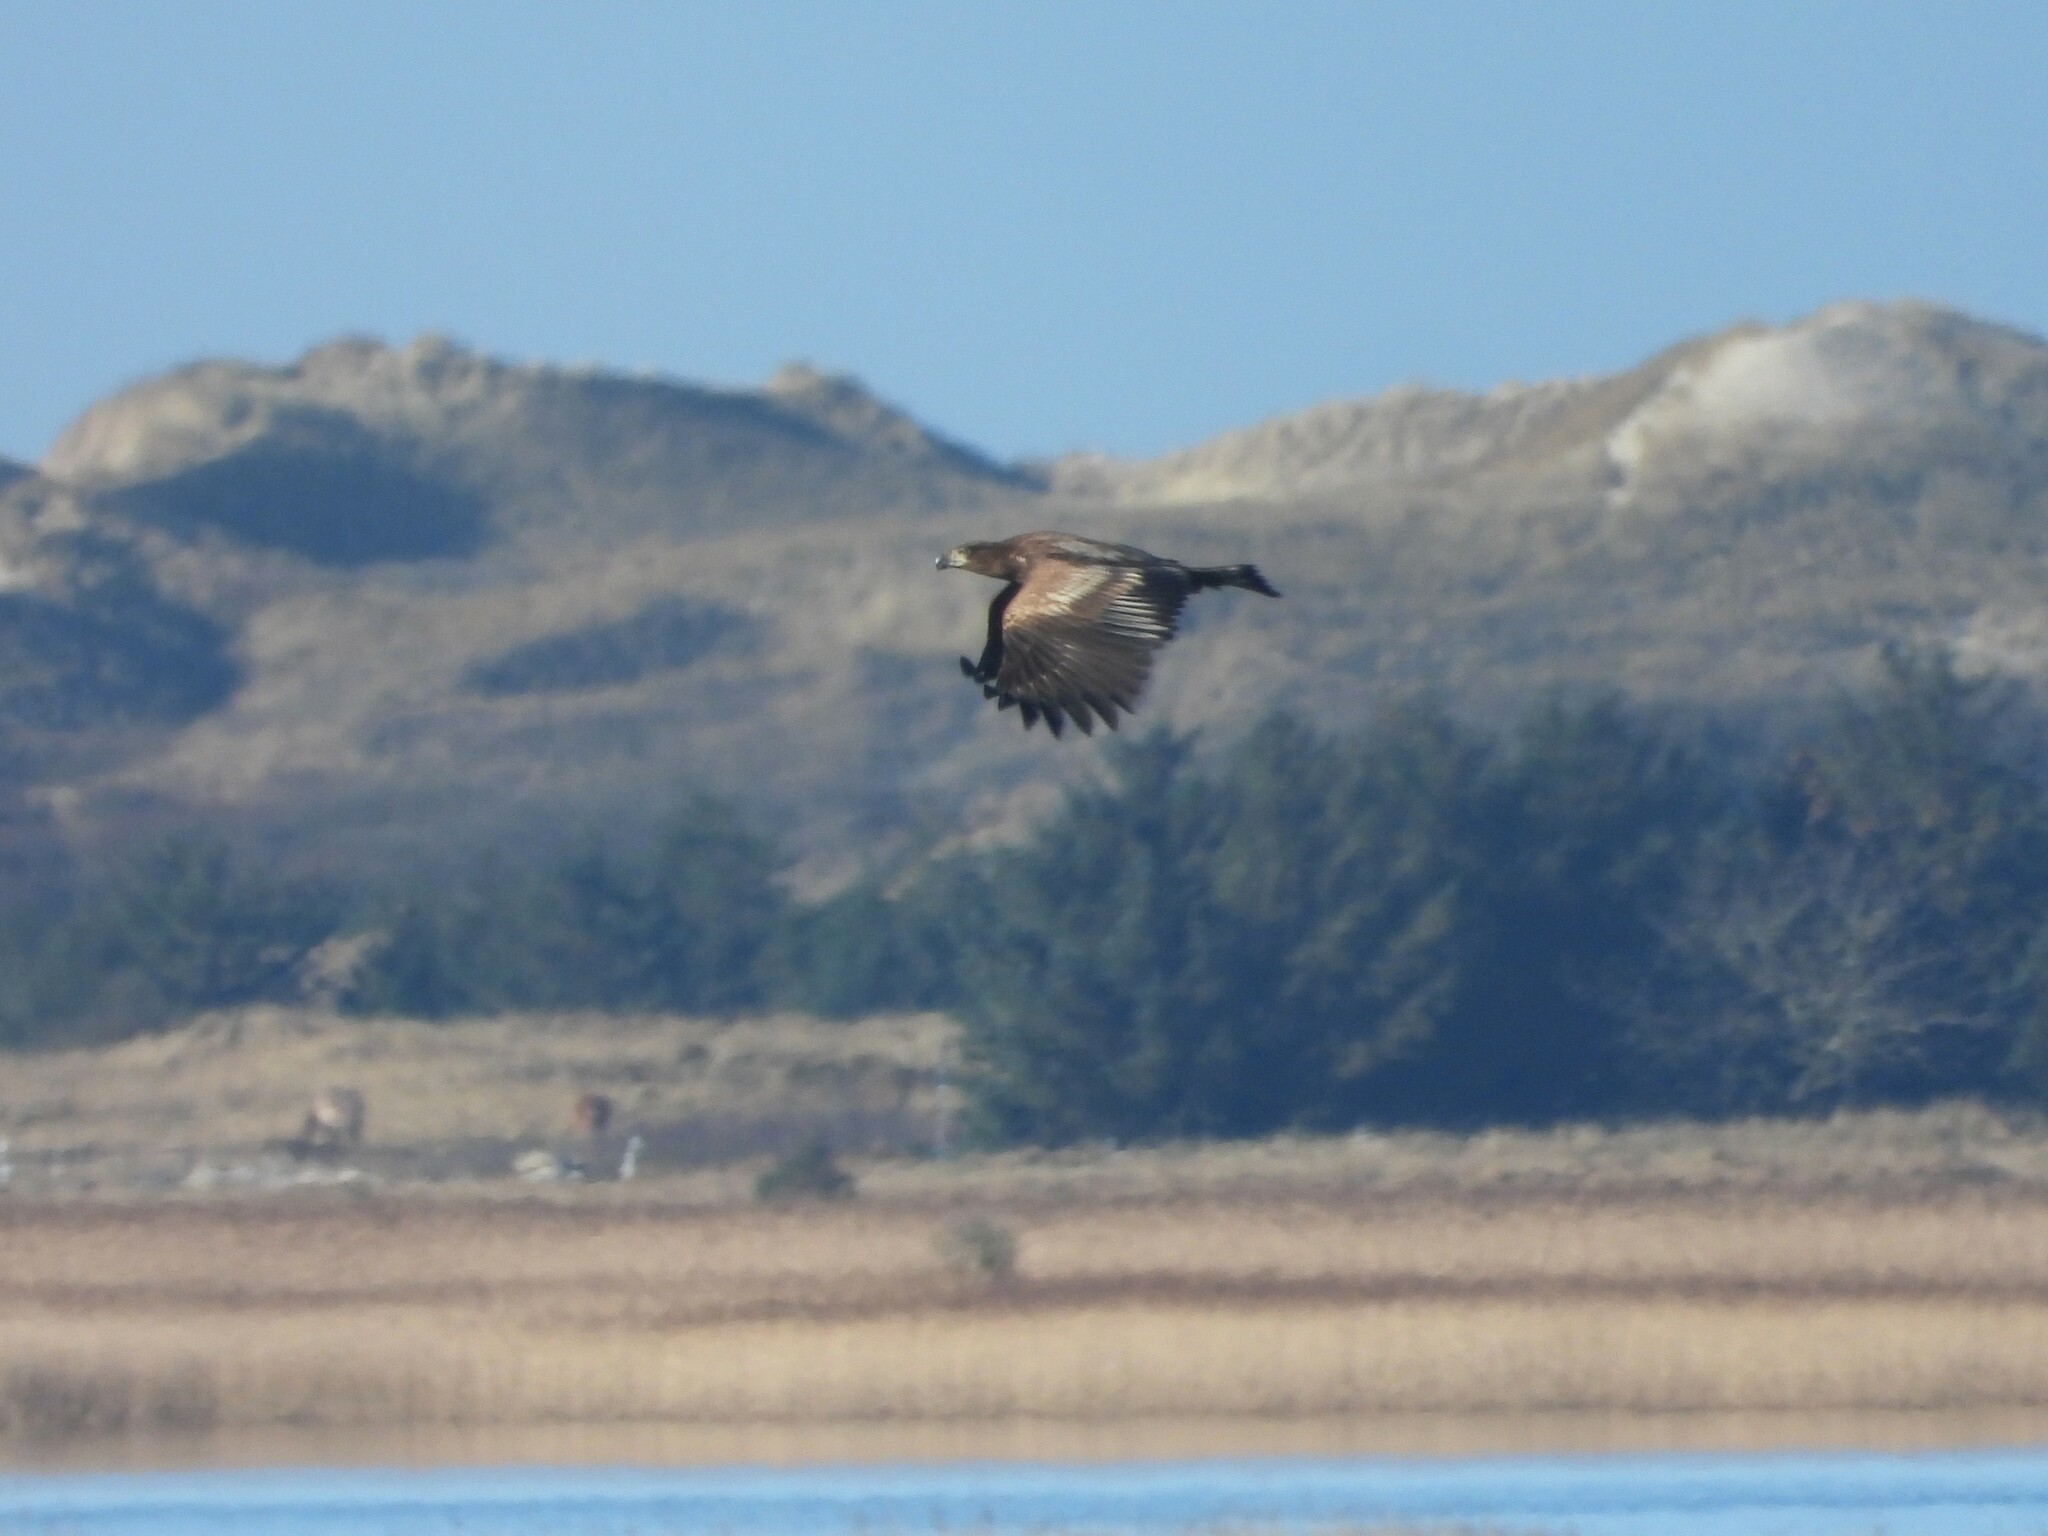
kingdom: Animalia
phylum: Chordata
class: Aves
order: Accipitriformes
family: Accipitridae
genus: Haliaeetus
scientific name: Haliaeetus albicilla
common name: White-tailed eagle
